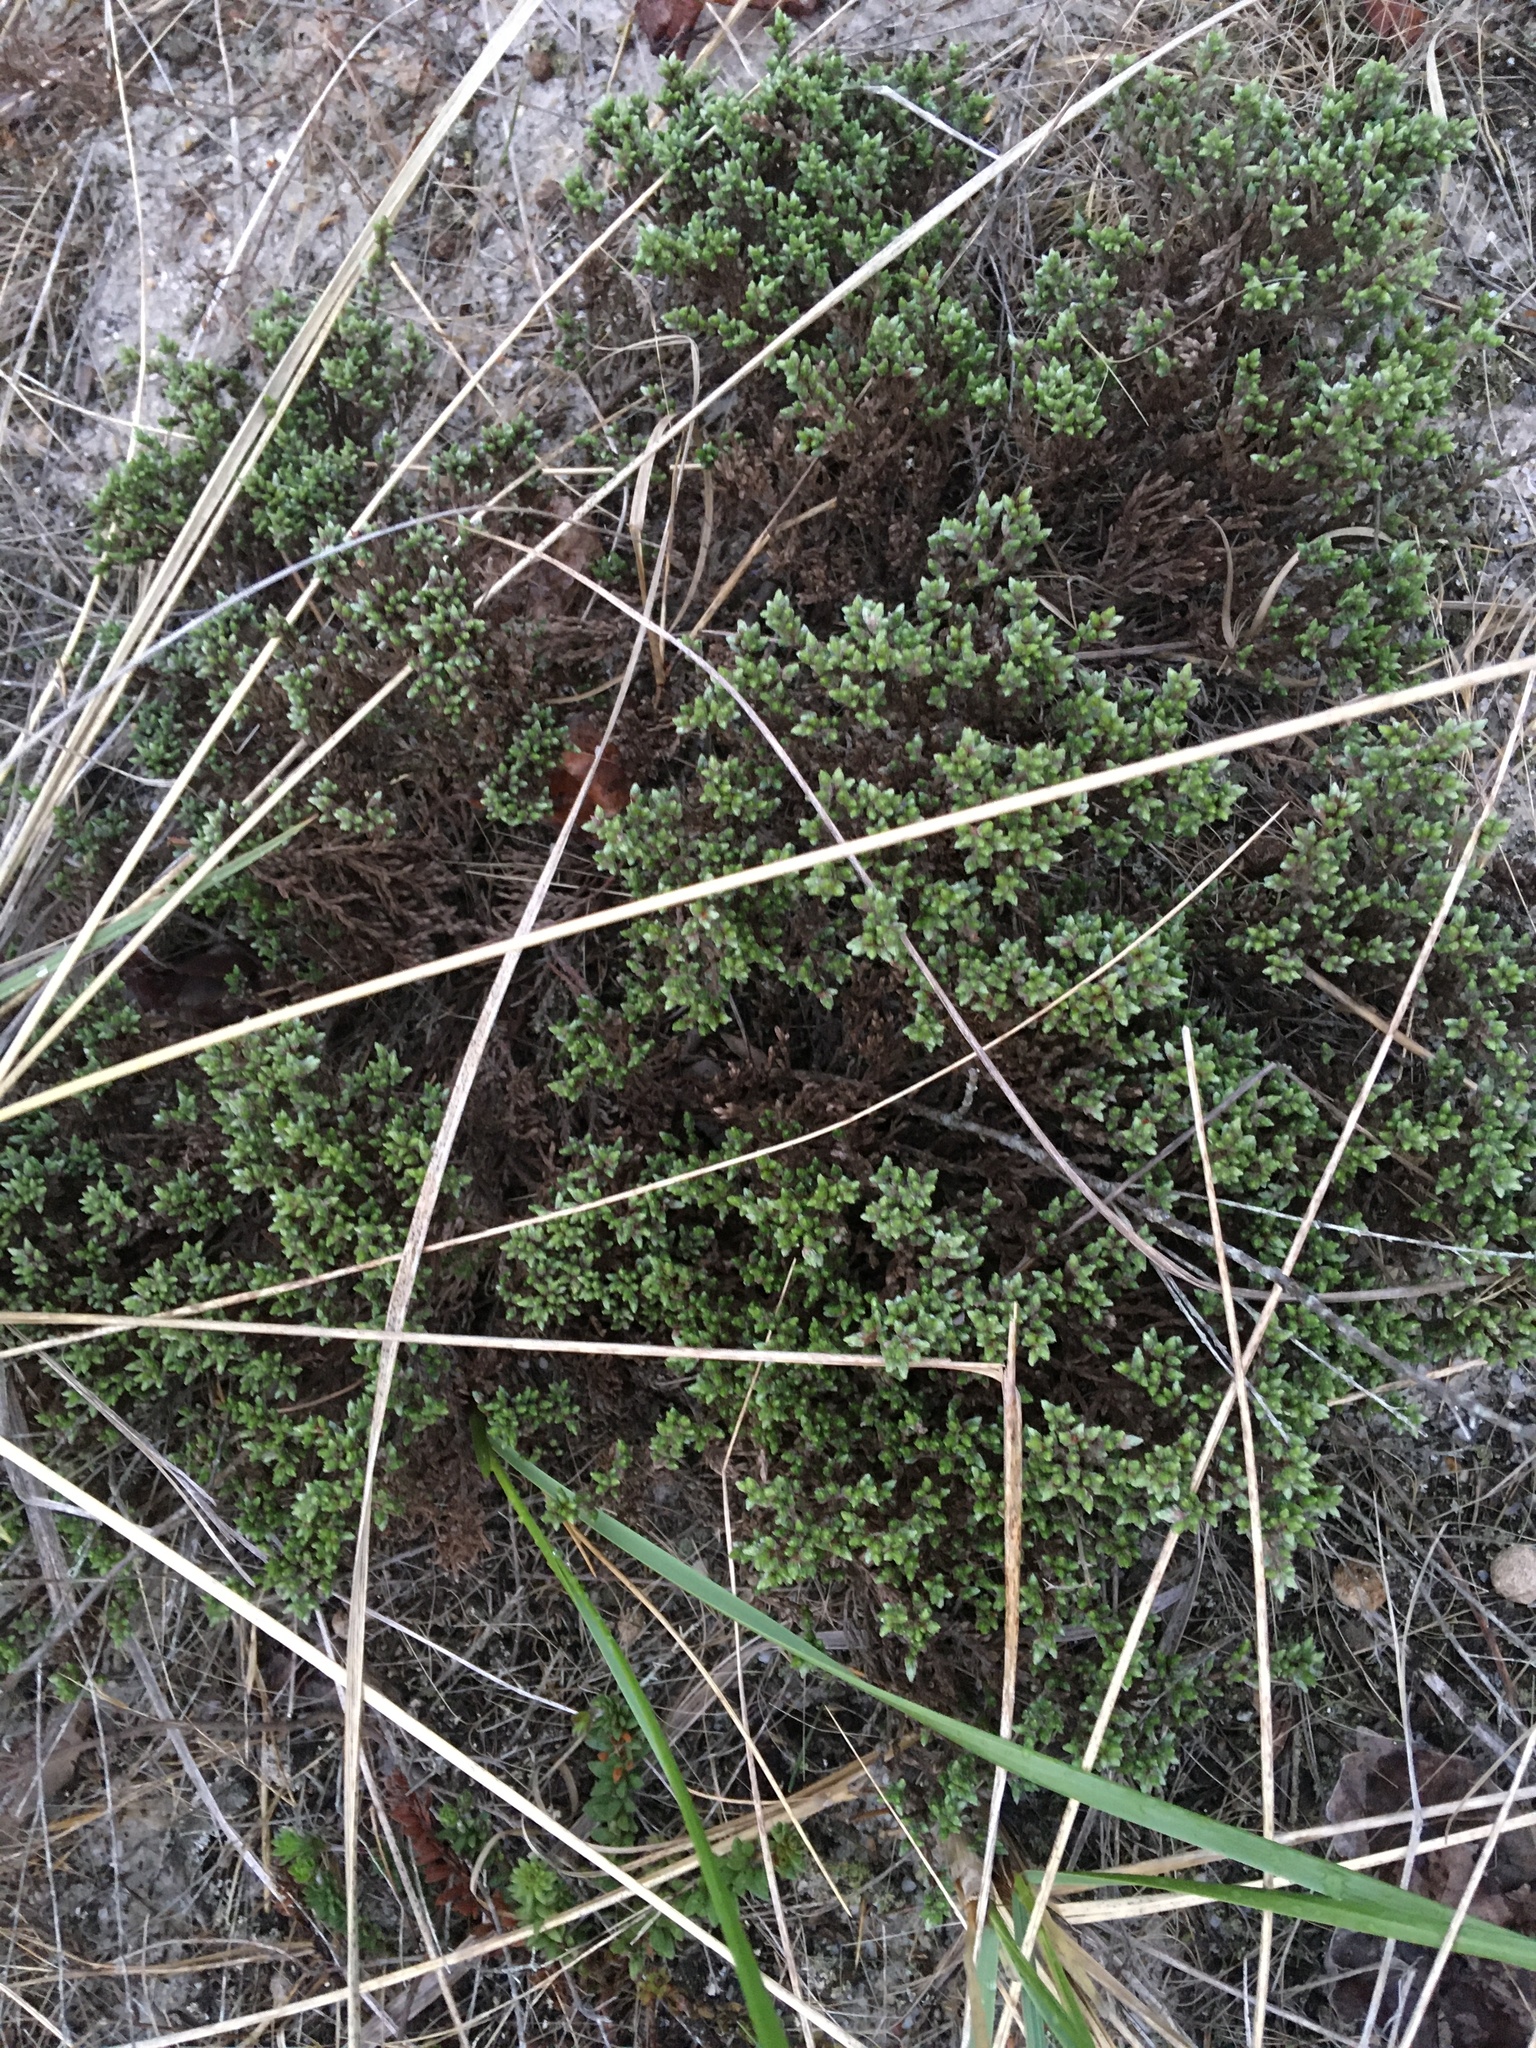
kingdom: Plantae
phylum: Tracheophyta
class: Magnoliopsida
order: Malvales
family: Cistaceae
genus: Hudsonia
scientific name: Hudsonia tomentosa
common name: Beach-heath
